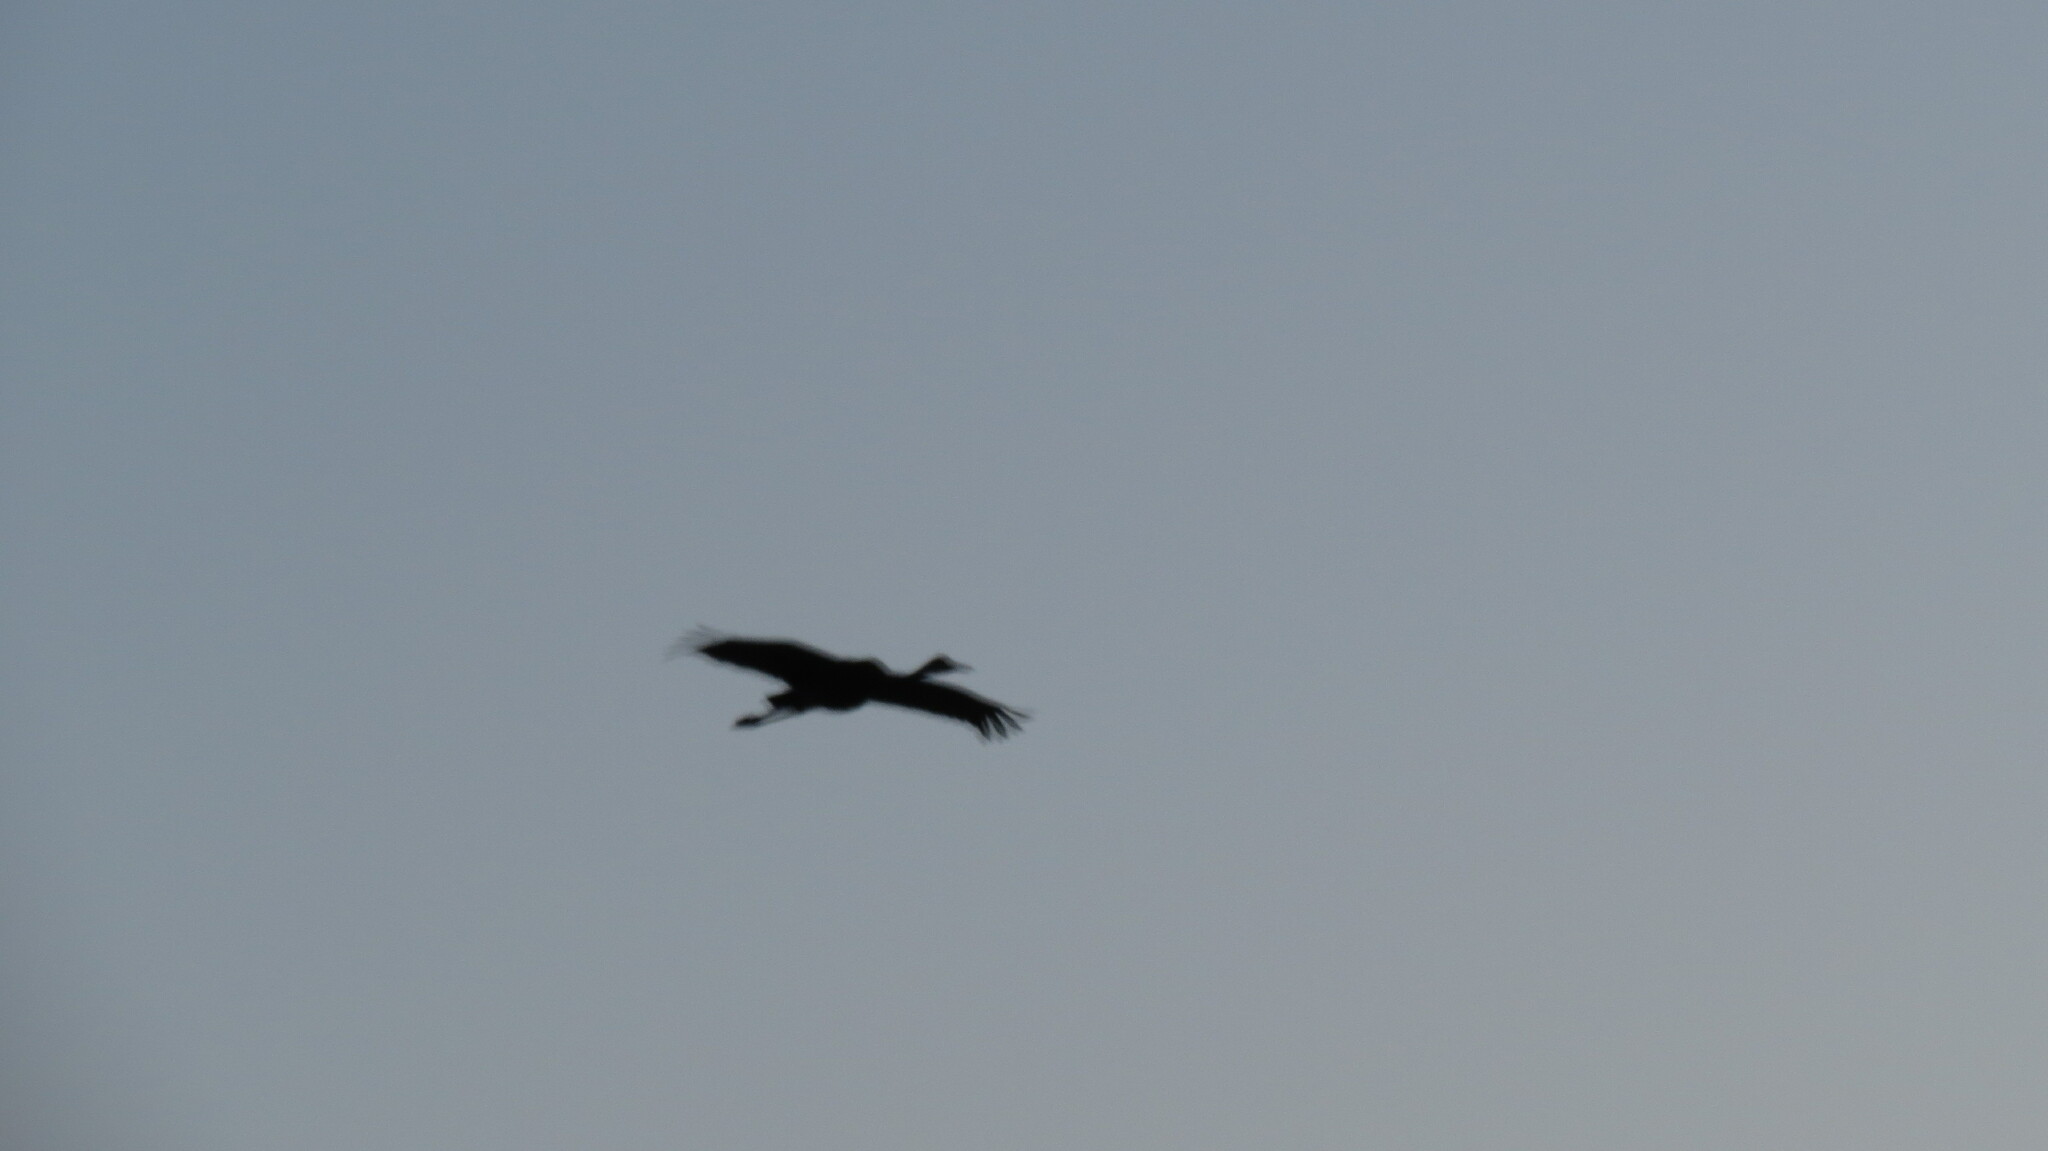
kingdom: Animalia
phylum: Chordata
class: Aves
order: Gruiformes
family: Gruidae
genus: Grus
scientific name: Grus canadensis
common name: Sandhill crane
